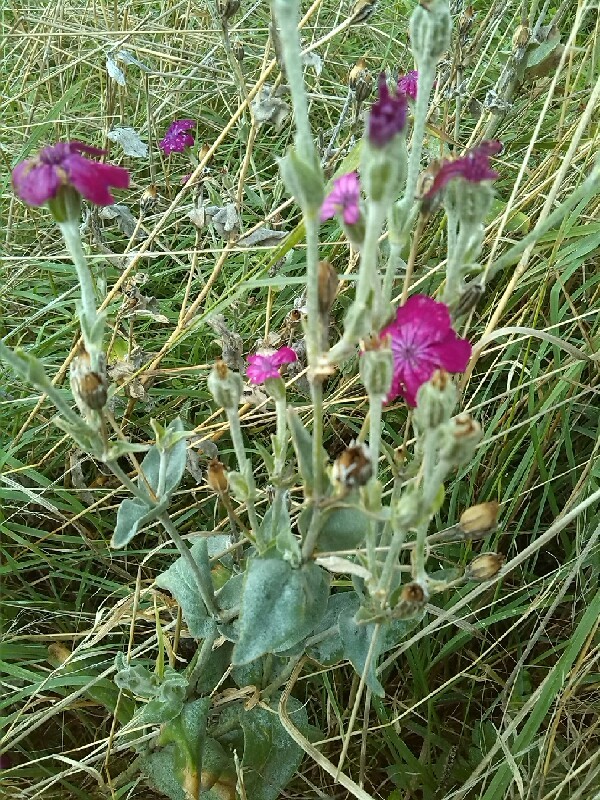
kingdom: Plantae
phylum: Tracheophyta
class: Magnoliopsida
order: Caryophyllales
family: Caryophyllaceae
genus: Silene
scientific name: Silene coronaria
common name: Rose campion
